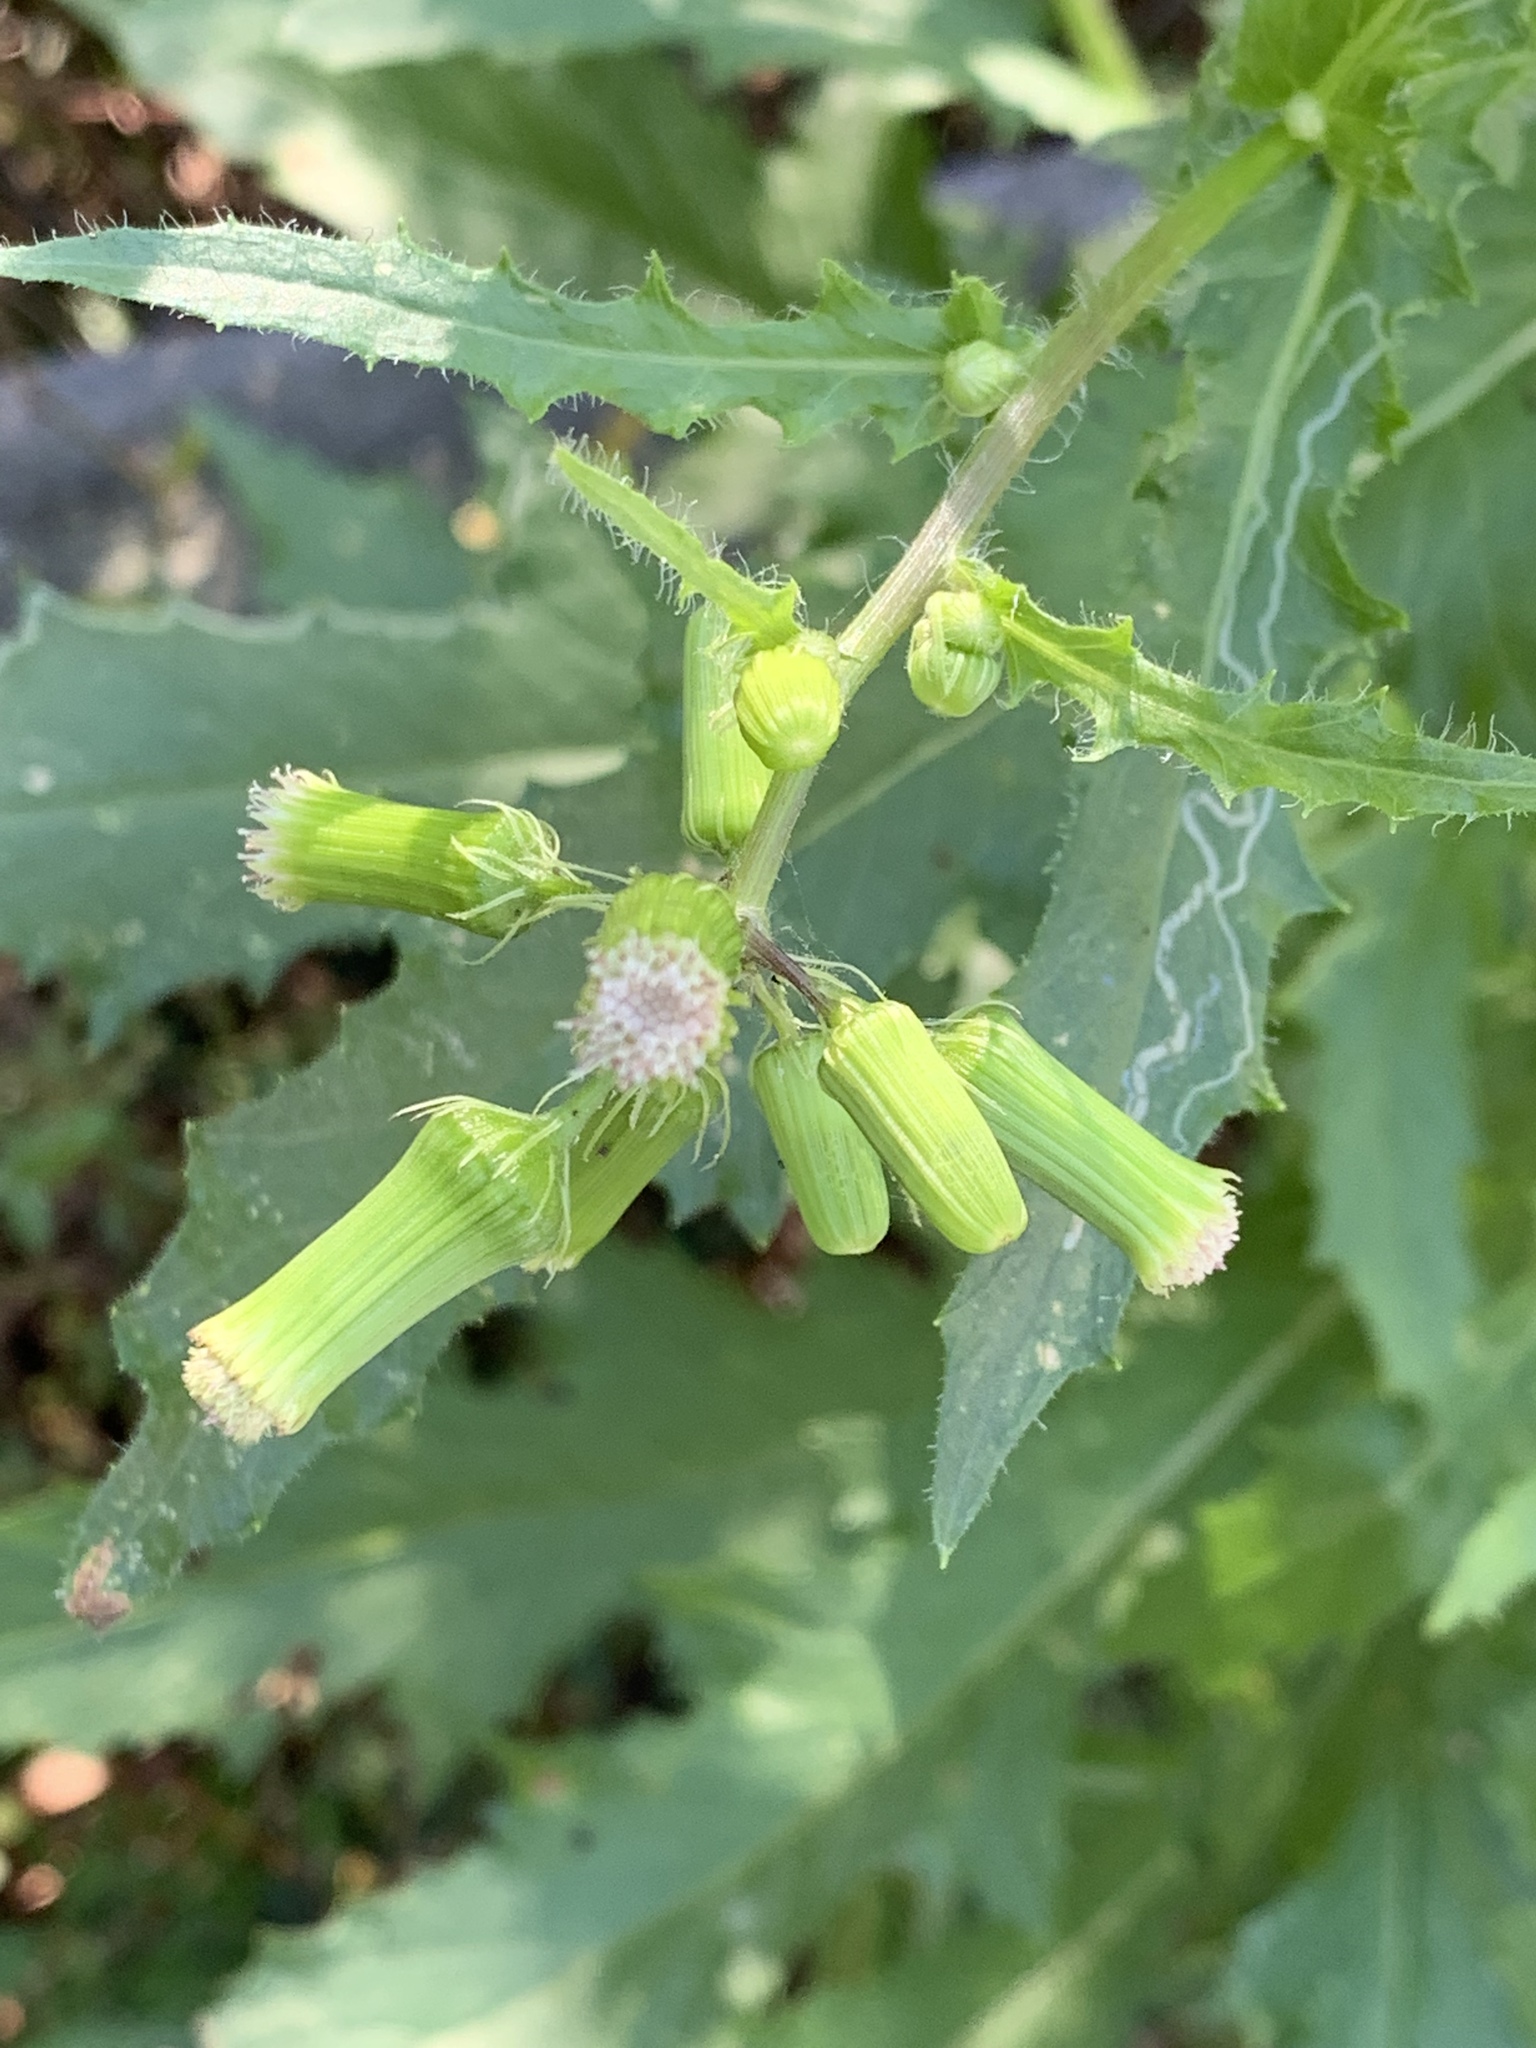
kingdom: Plantae
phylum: Tracheophyta
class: Magnoliopsida
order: Asterales
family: Asteraceae
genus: Erechtites
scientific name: Erechtites hieraciifolius
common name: American burnweed
